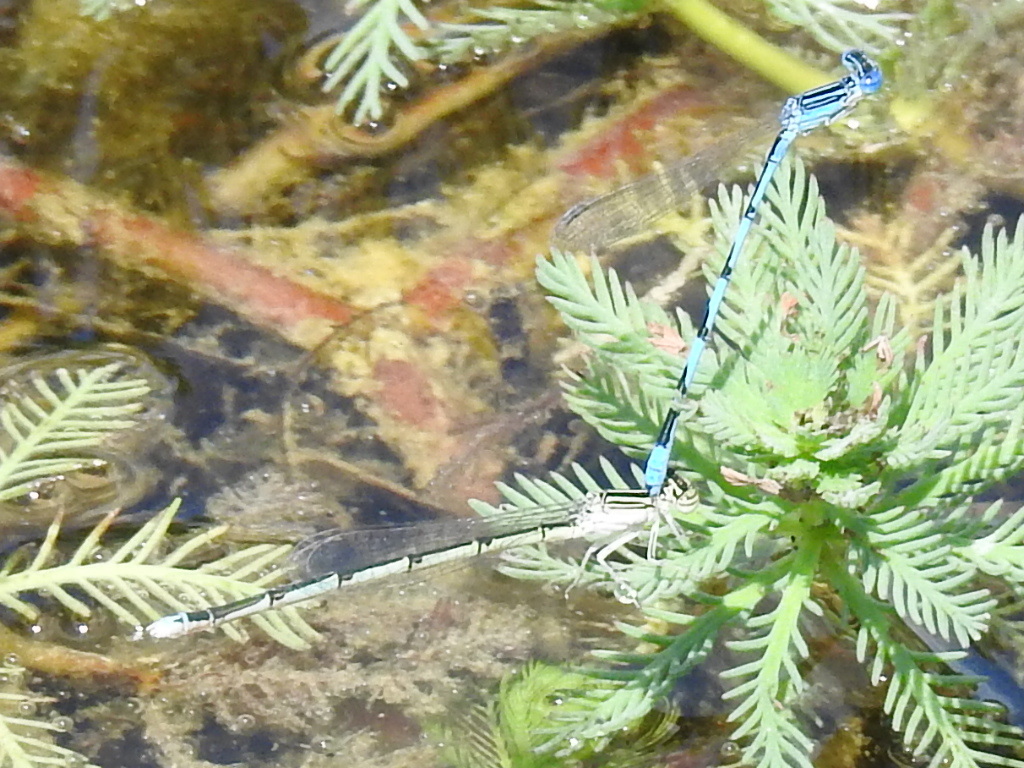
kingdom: Animalia
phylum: Arthropoda
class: Insecta
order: Odonata
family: Coenagrionidae
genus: Enallagma
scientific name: Enallagma basidens
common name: Double-striped bluet
